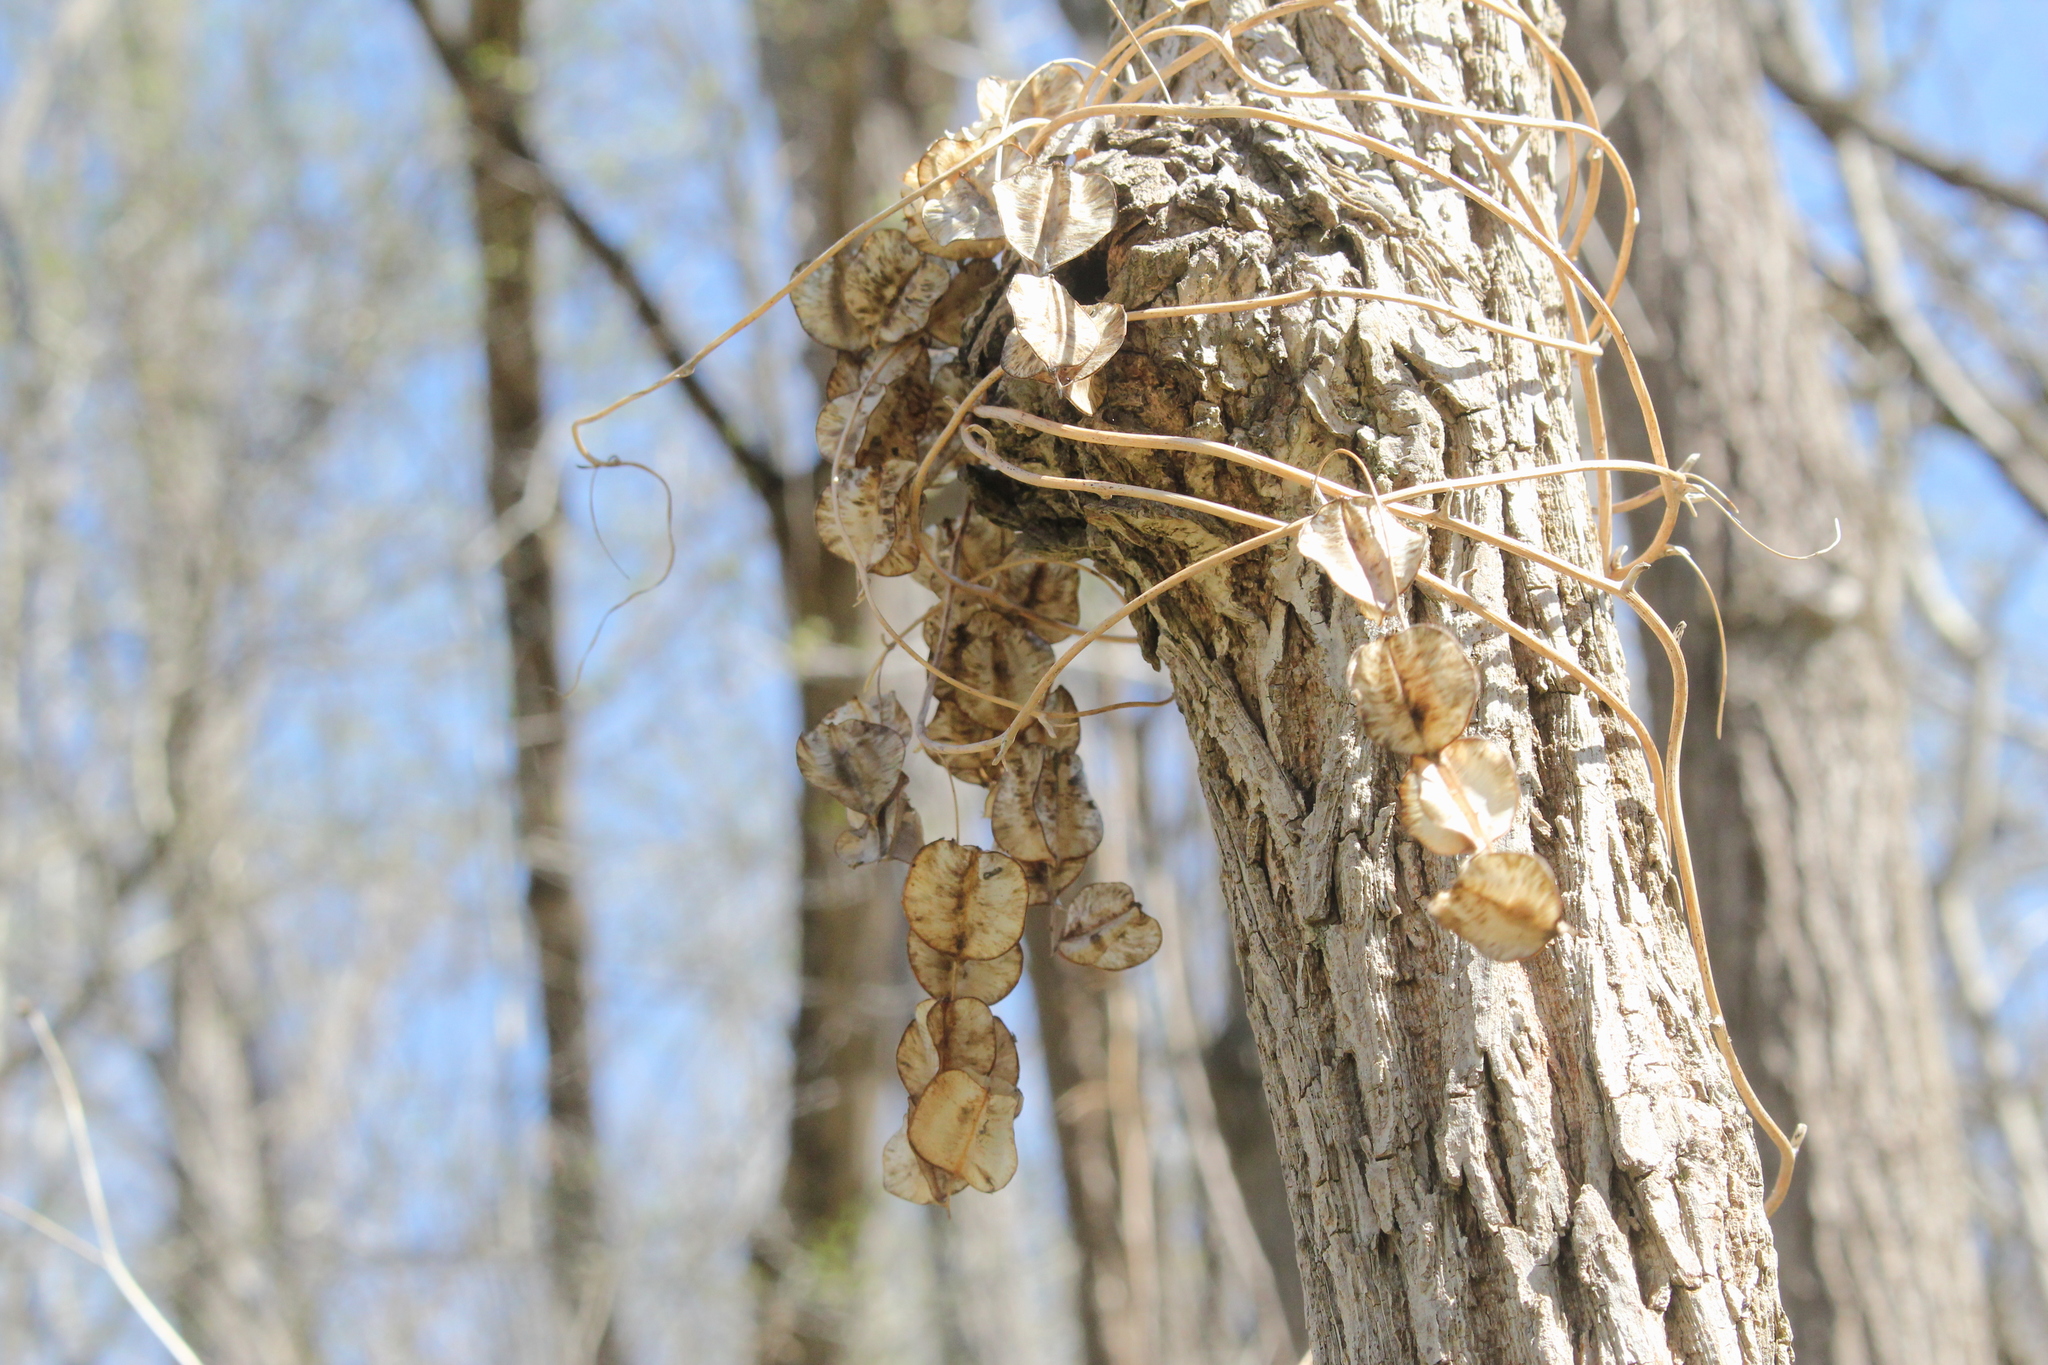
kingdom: Plantae
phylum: Tracheophyta
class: Liliopsida
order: Dioscoreales
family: Dioscoreaceae
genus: Dioscorea
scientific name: Dioscorea villosa
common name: Wild yam
